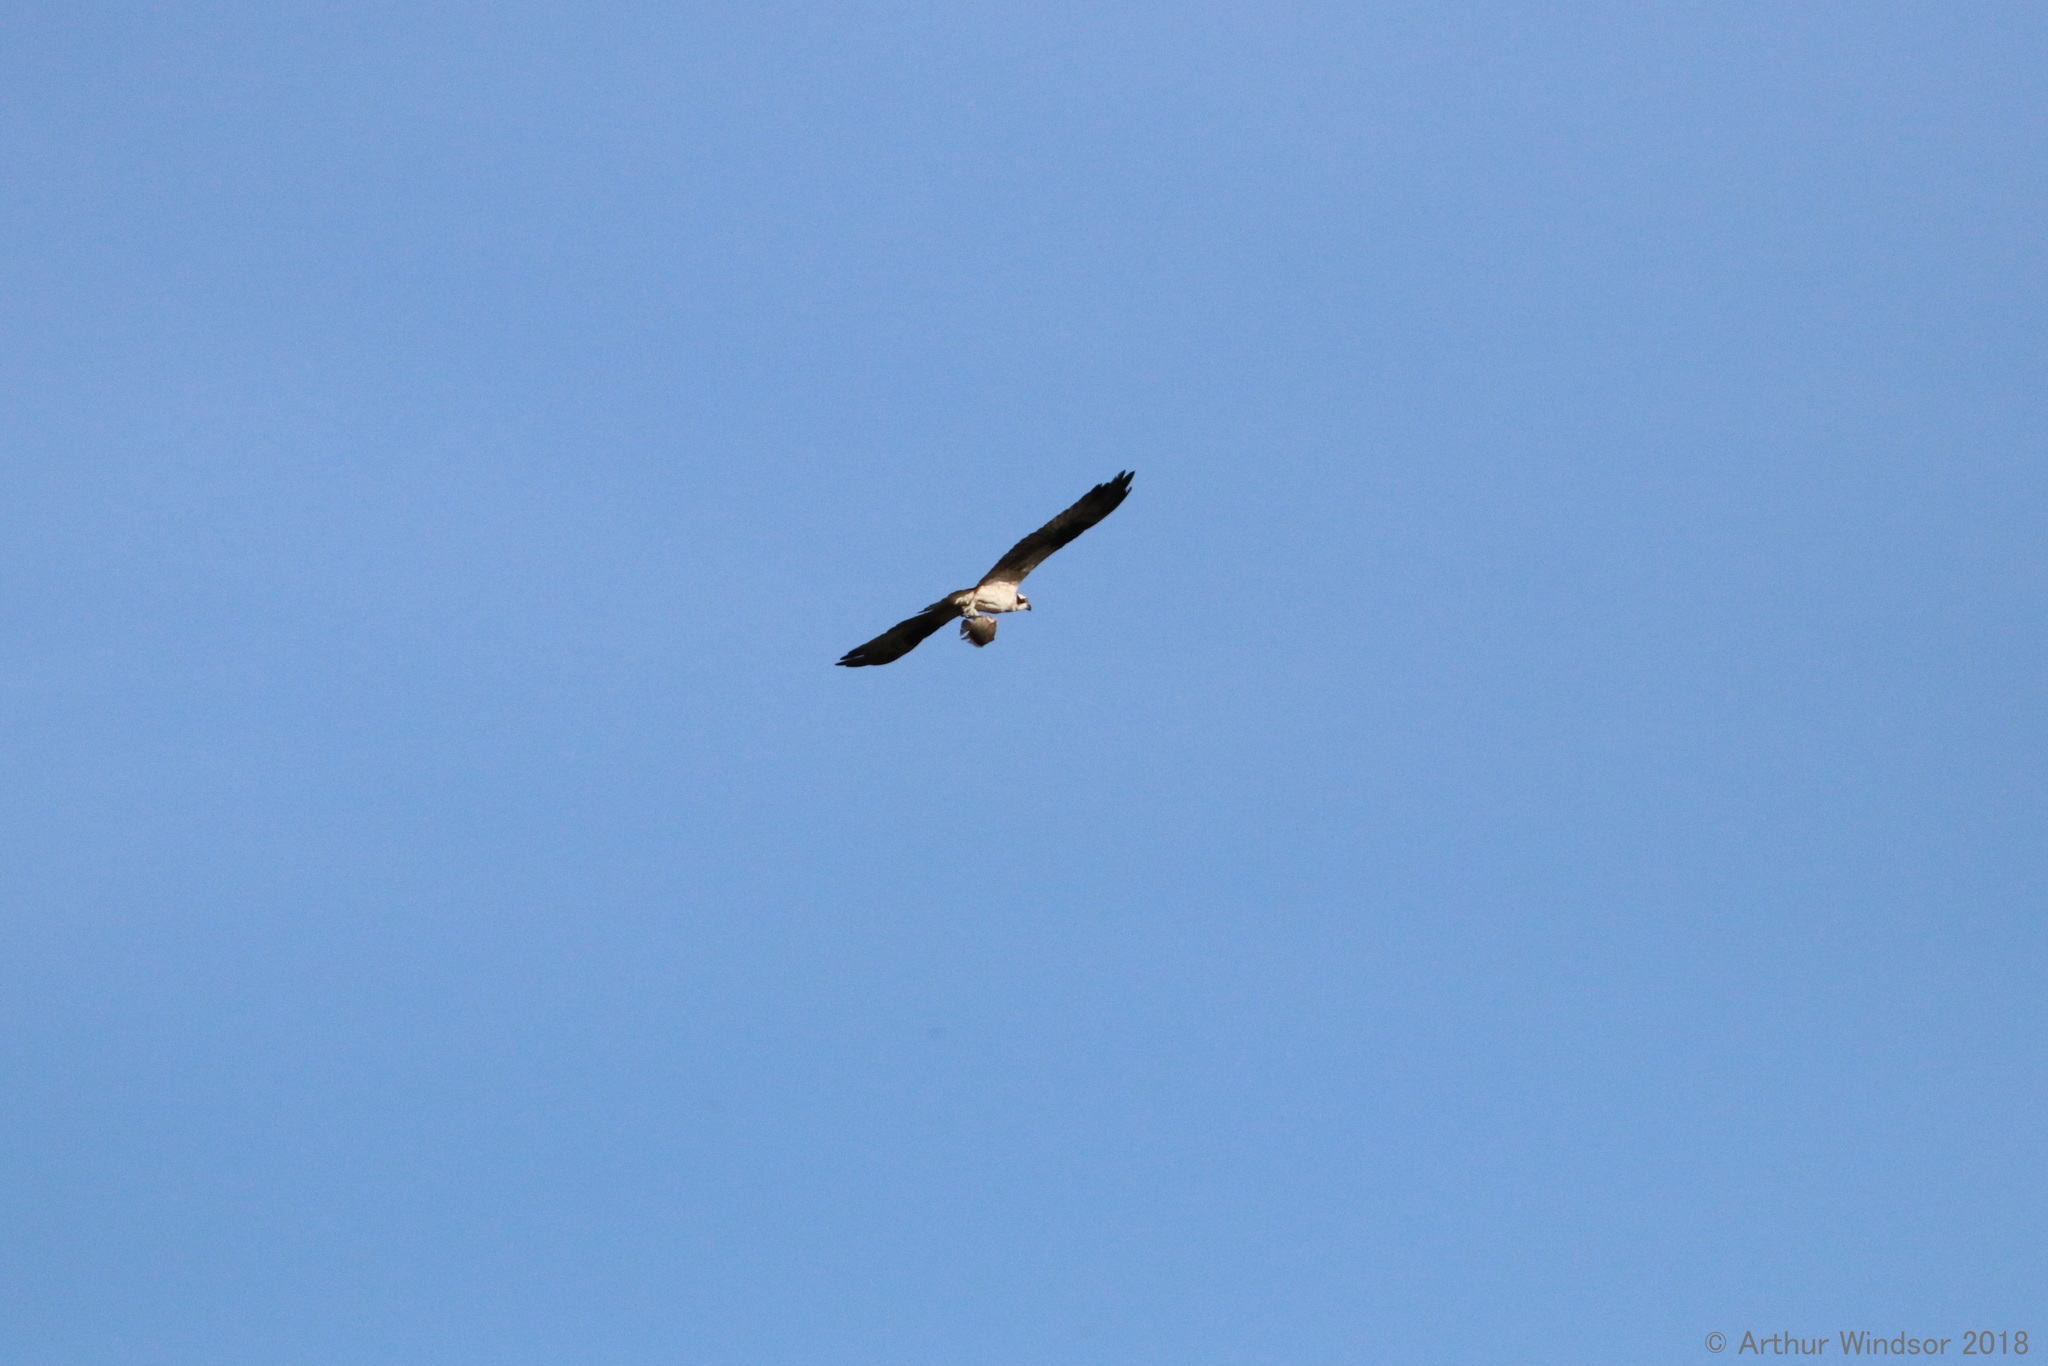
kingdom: Animalia
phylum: Chordata
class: Aves
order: Accipitriformes
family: Pandionidae
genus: Pandion
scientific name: Pandion haliaetus
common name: Osprey
